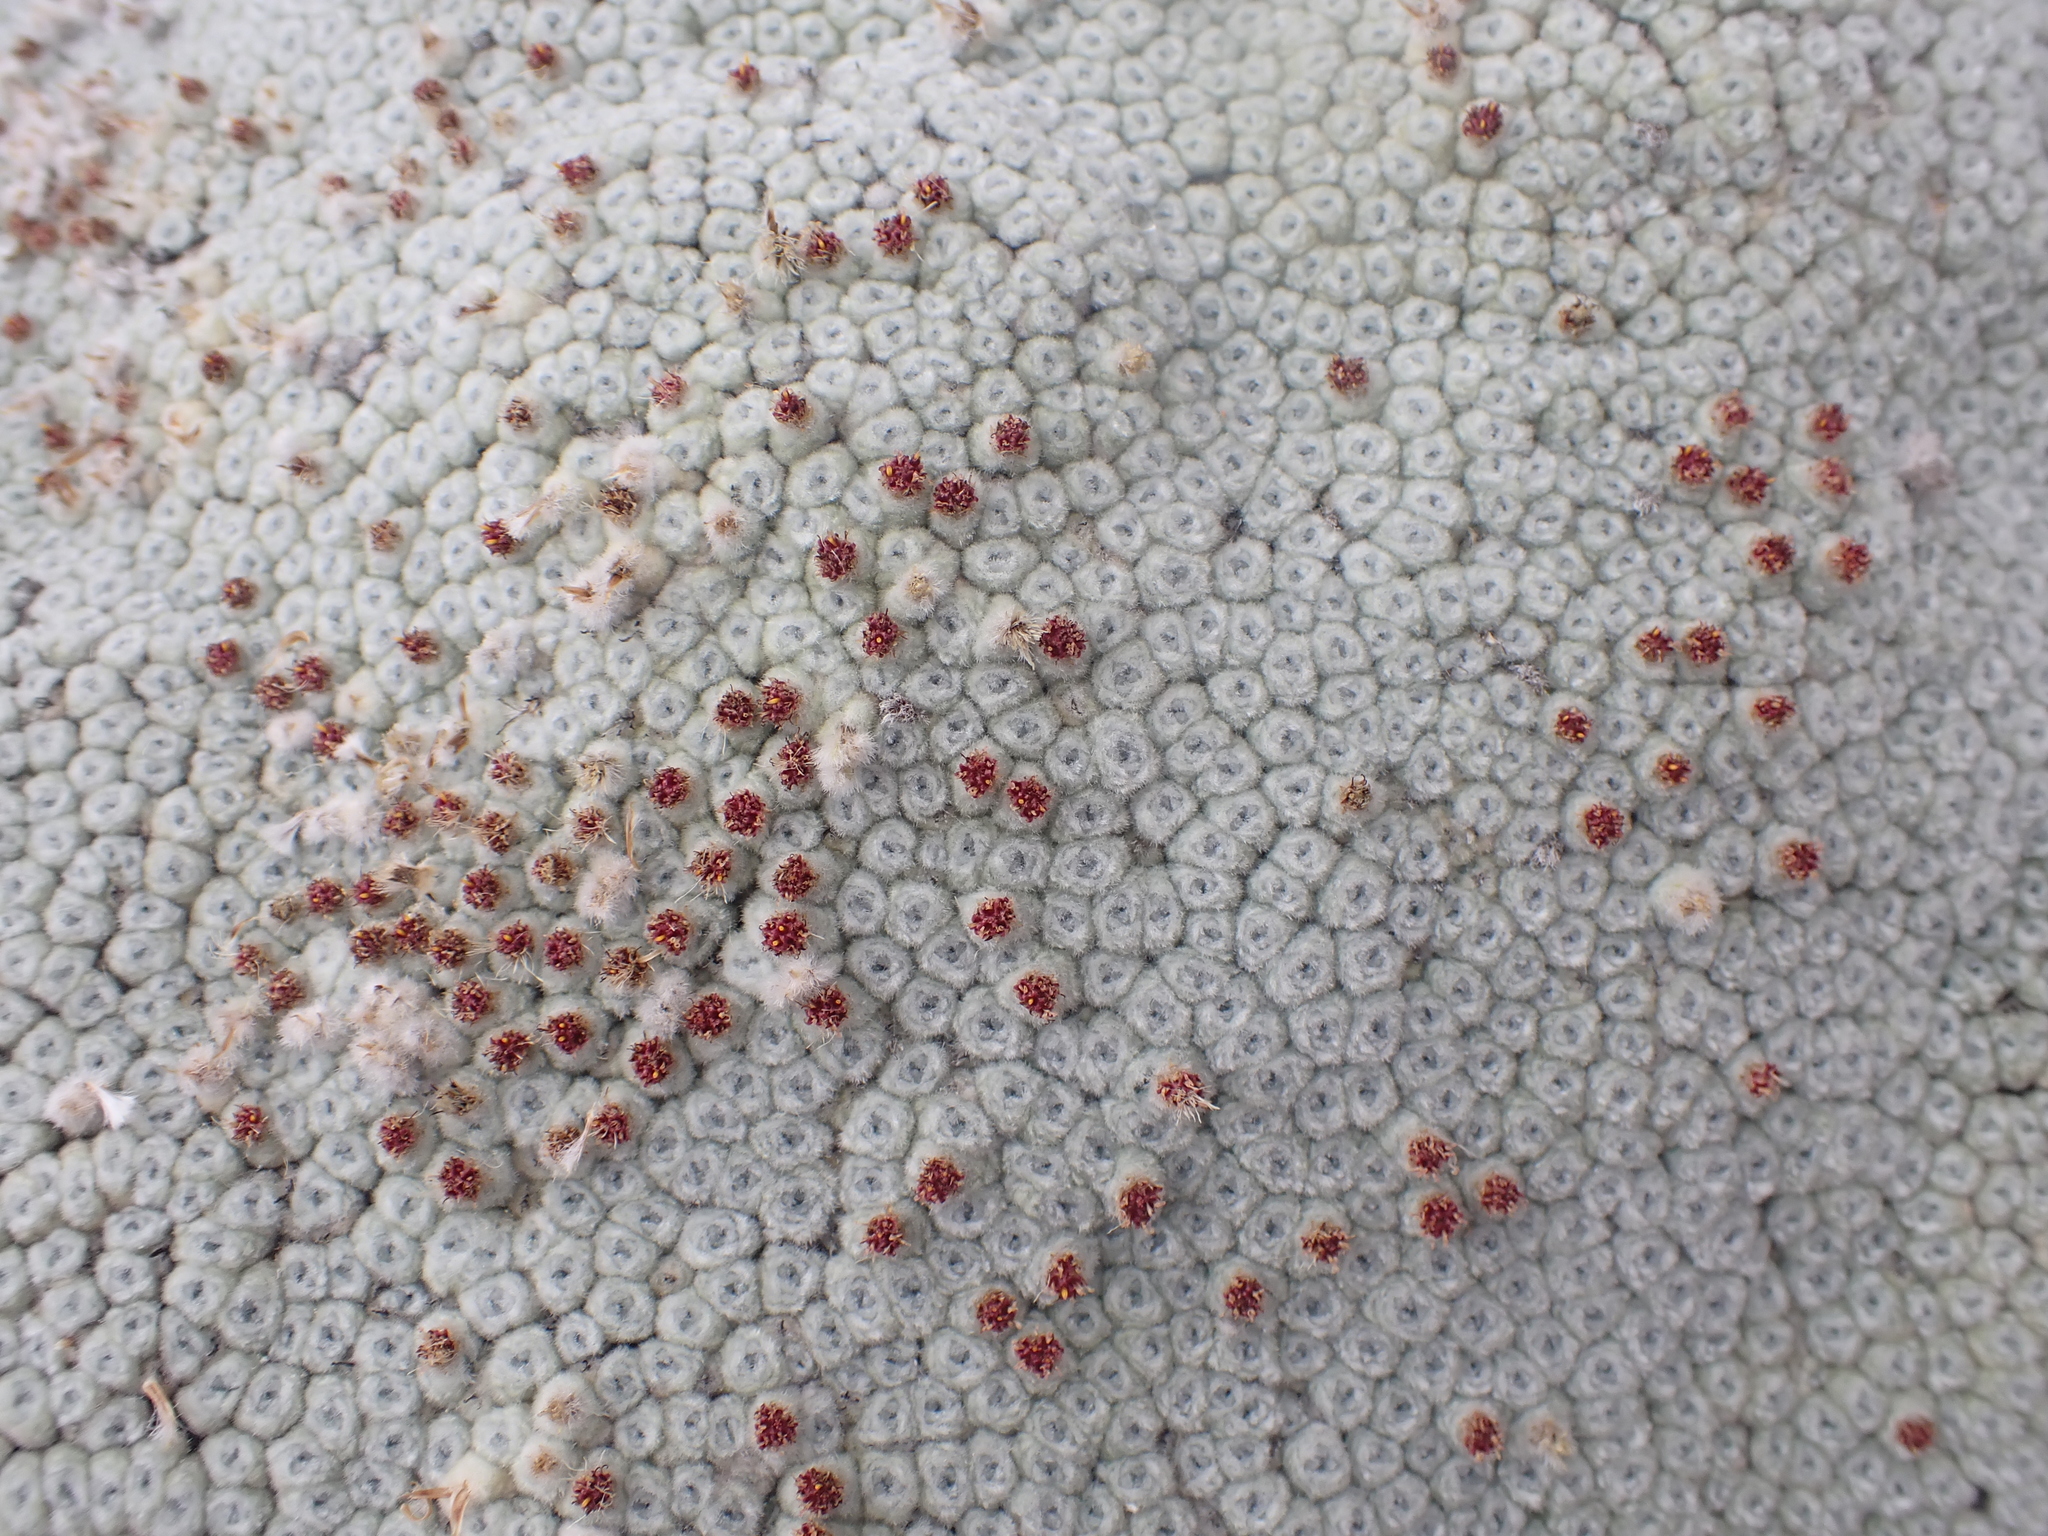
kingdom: Plantae
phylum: Tracheophyta
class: Magnoliopsida
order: Asterales
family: Asteraceae
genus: Raoulia
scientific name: Raoulia eximia
